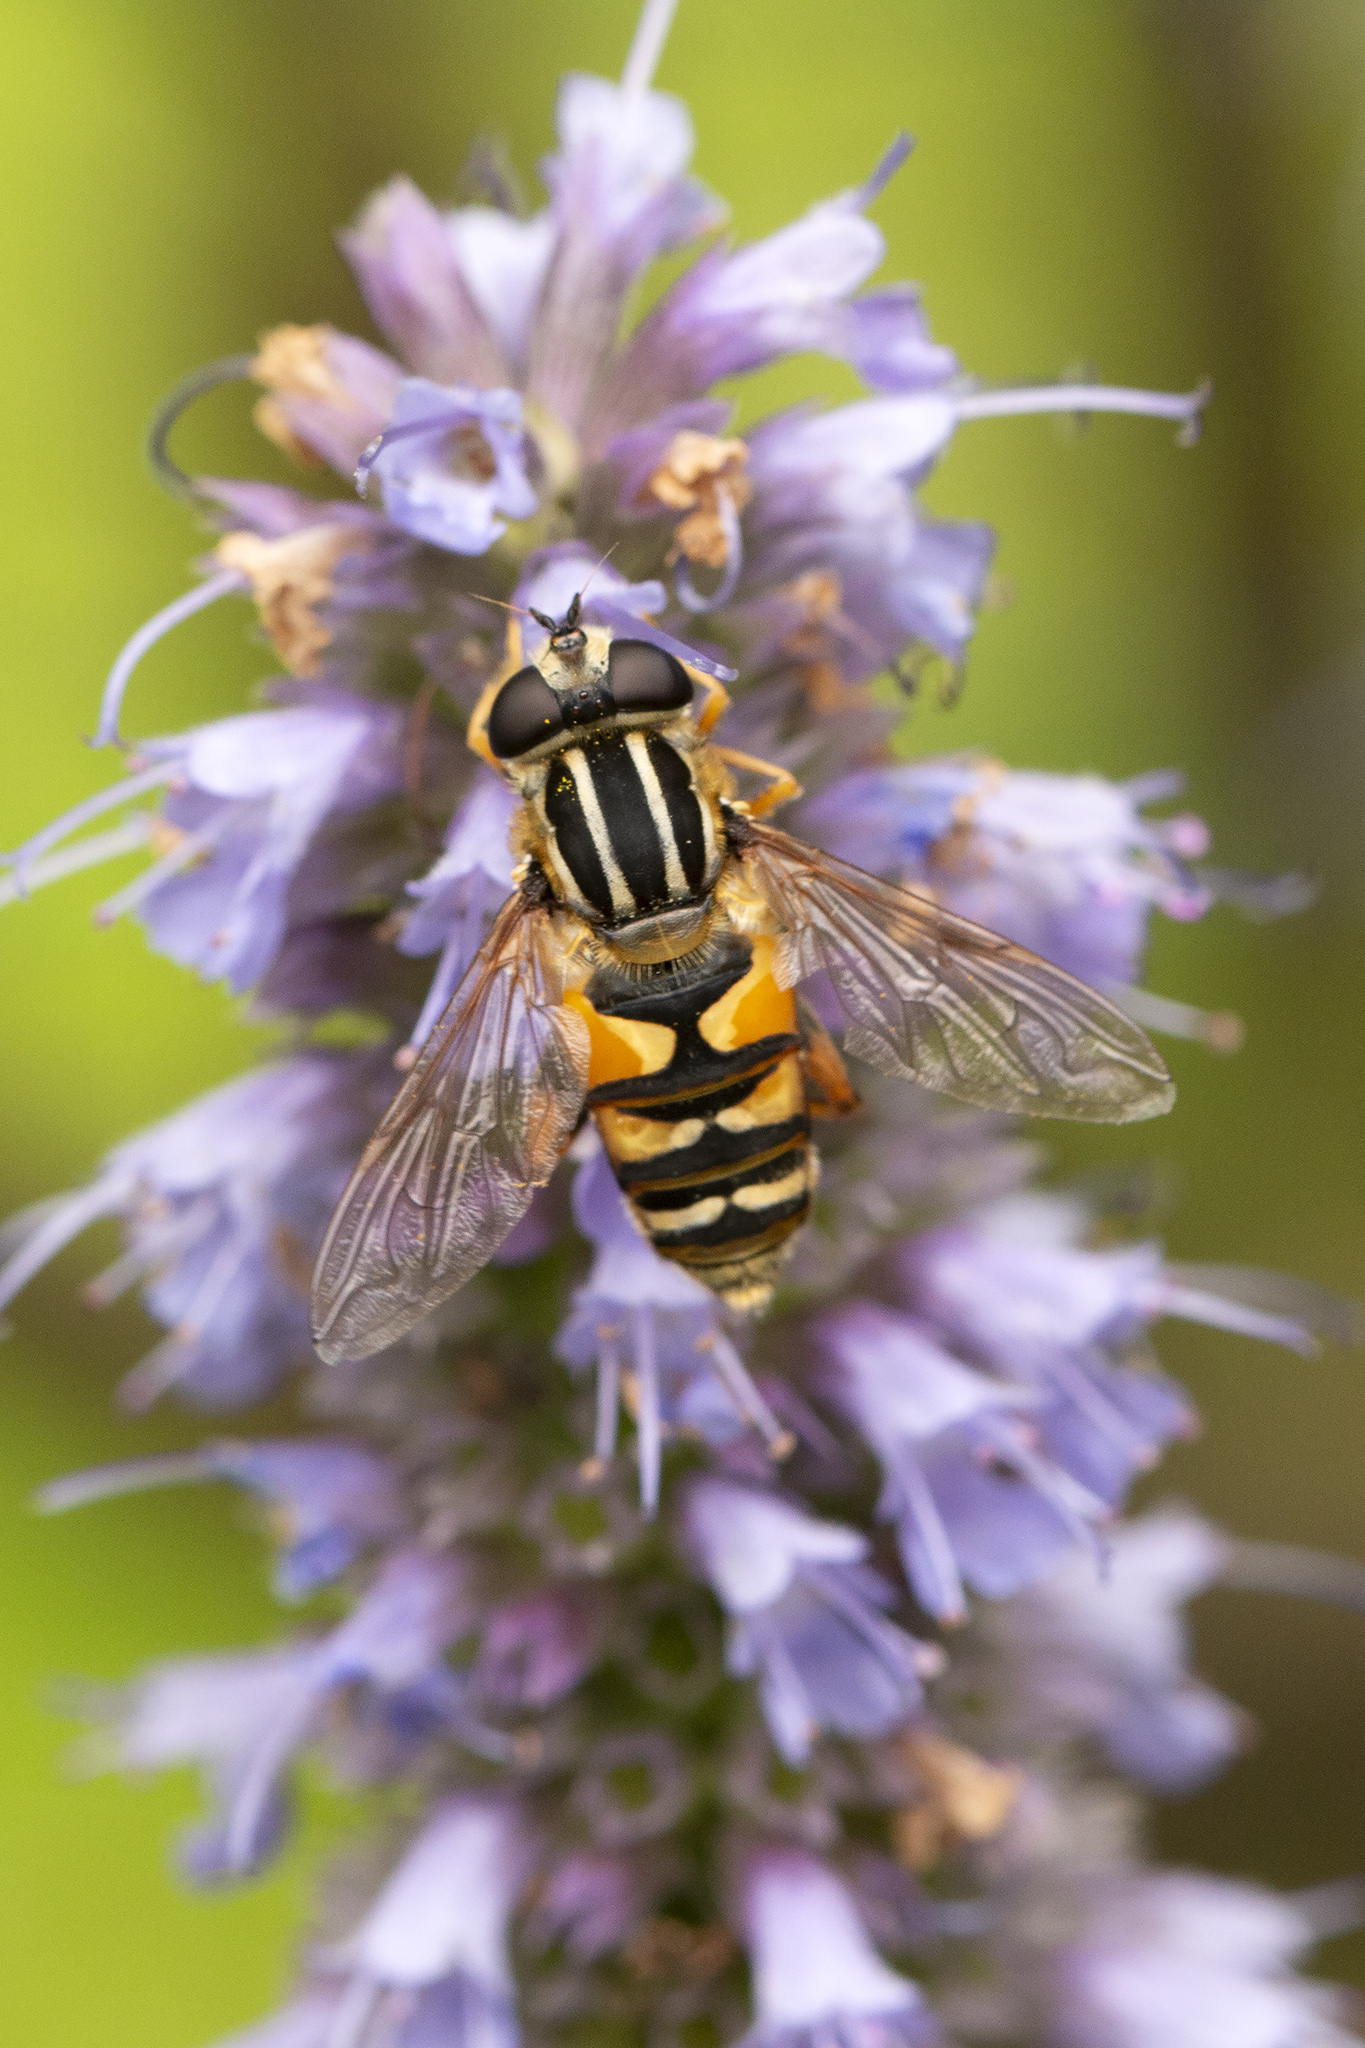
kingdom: Animalia
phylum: Arthropoda
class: Insecta
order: Diptera
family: Syrphidae
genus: Helophilus
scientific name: Helophilus pendulus
